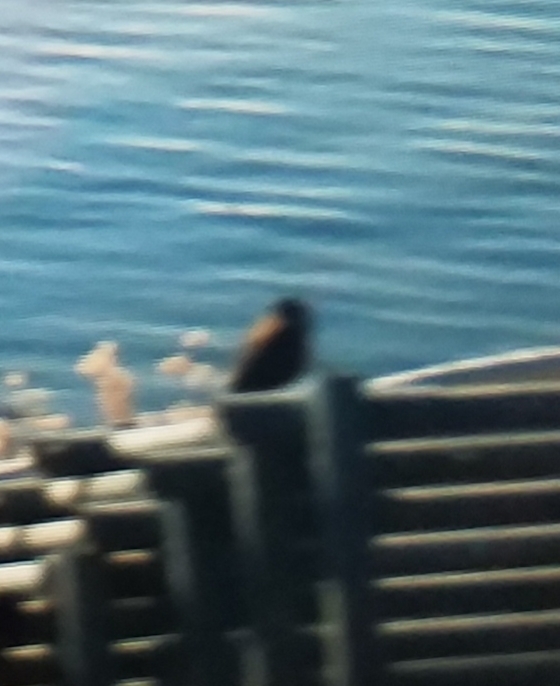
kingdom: Animalia
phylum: Chordata
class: Aves
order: Passeriformes
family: Icteridae
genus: Agelaius
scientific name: Agelaius phoeniceus
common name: Red-winged blackbird
